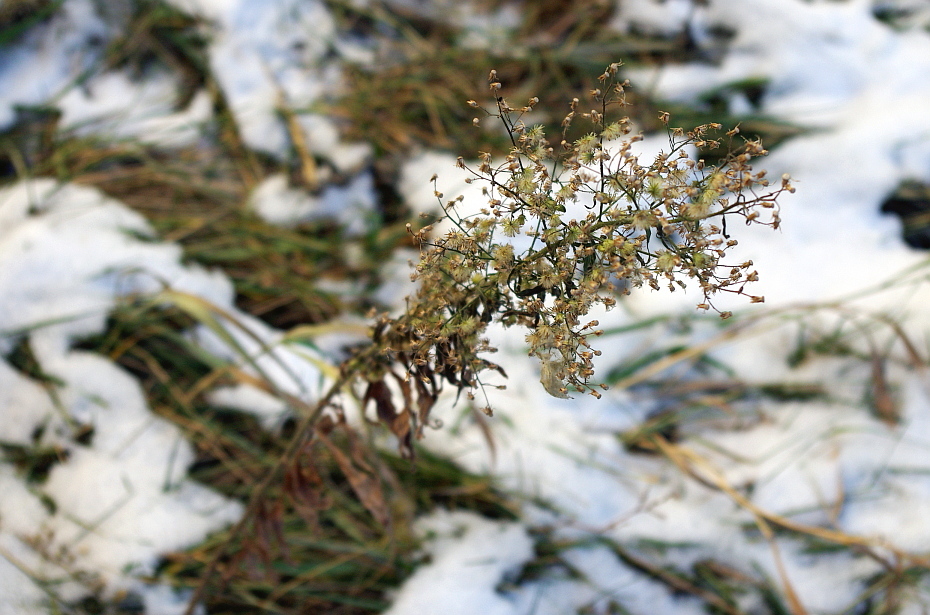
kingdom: Plantae
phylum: Tracheophyta
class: Magnoliopsida
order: Asterales
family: Asteraceae
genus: Erigeron
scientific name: Erigeron canadensis
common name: Canadian fleabane
